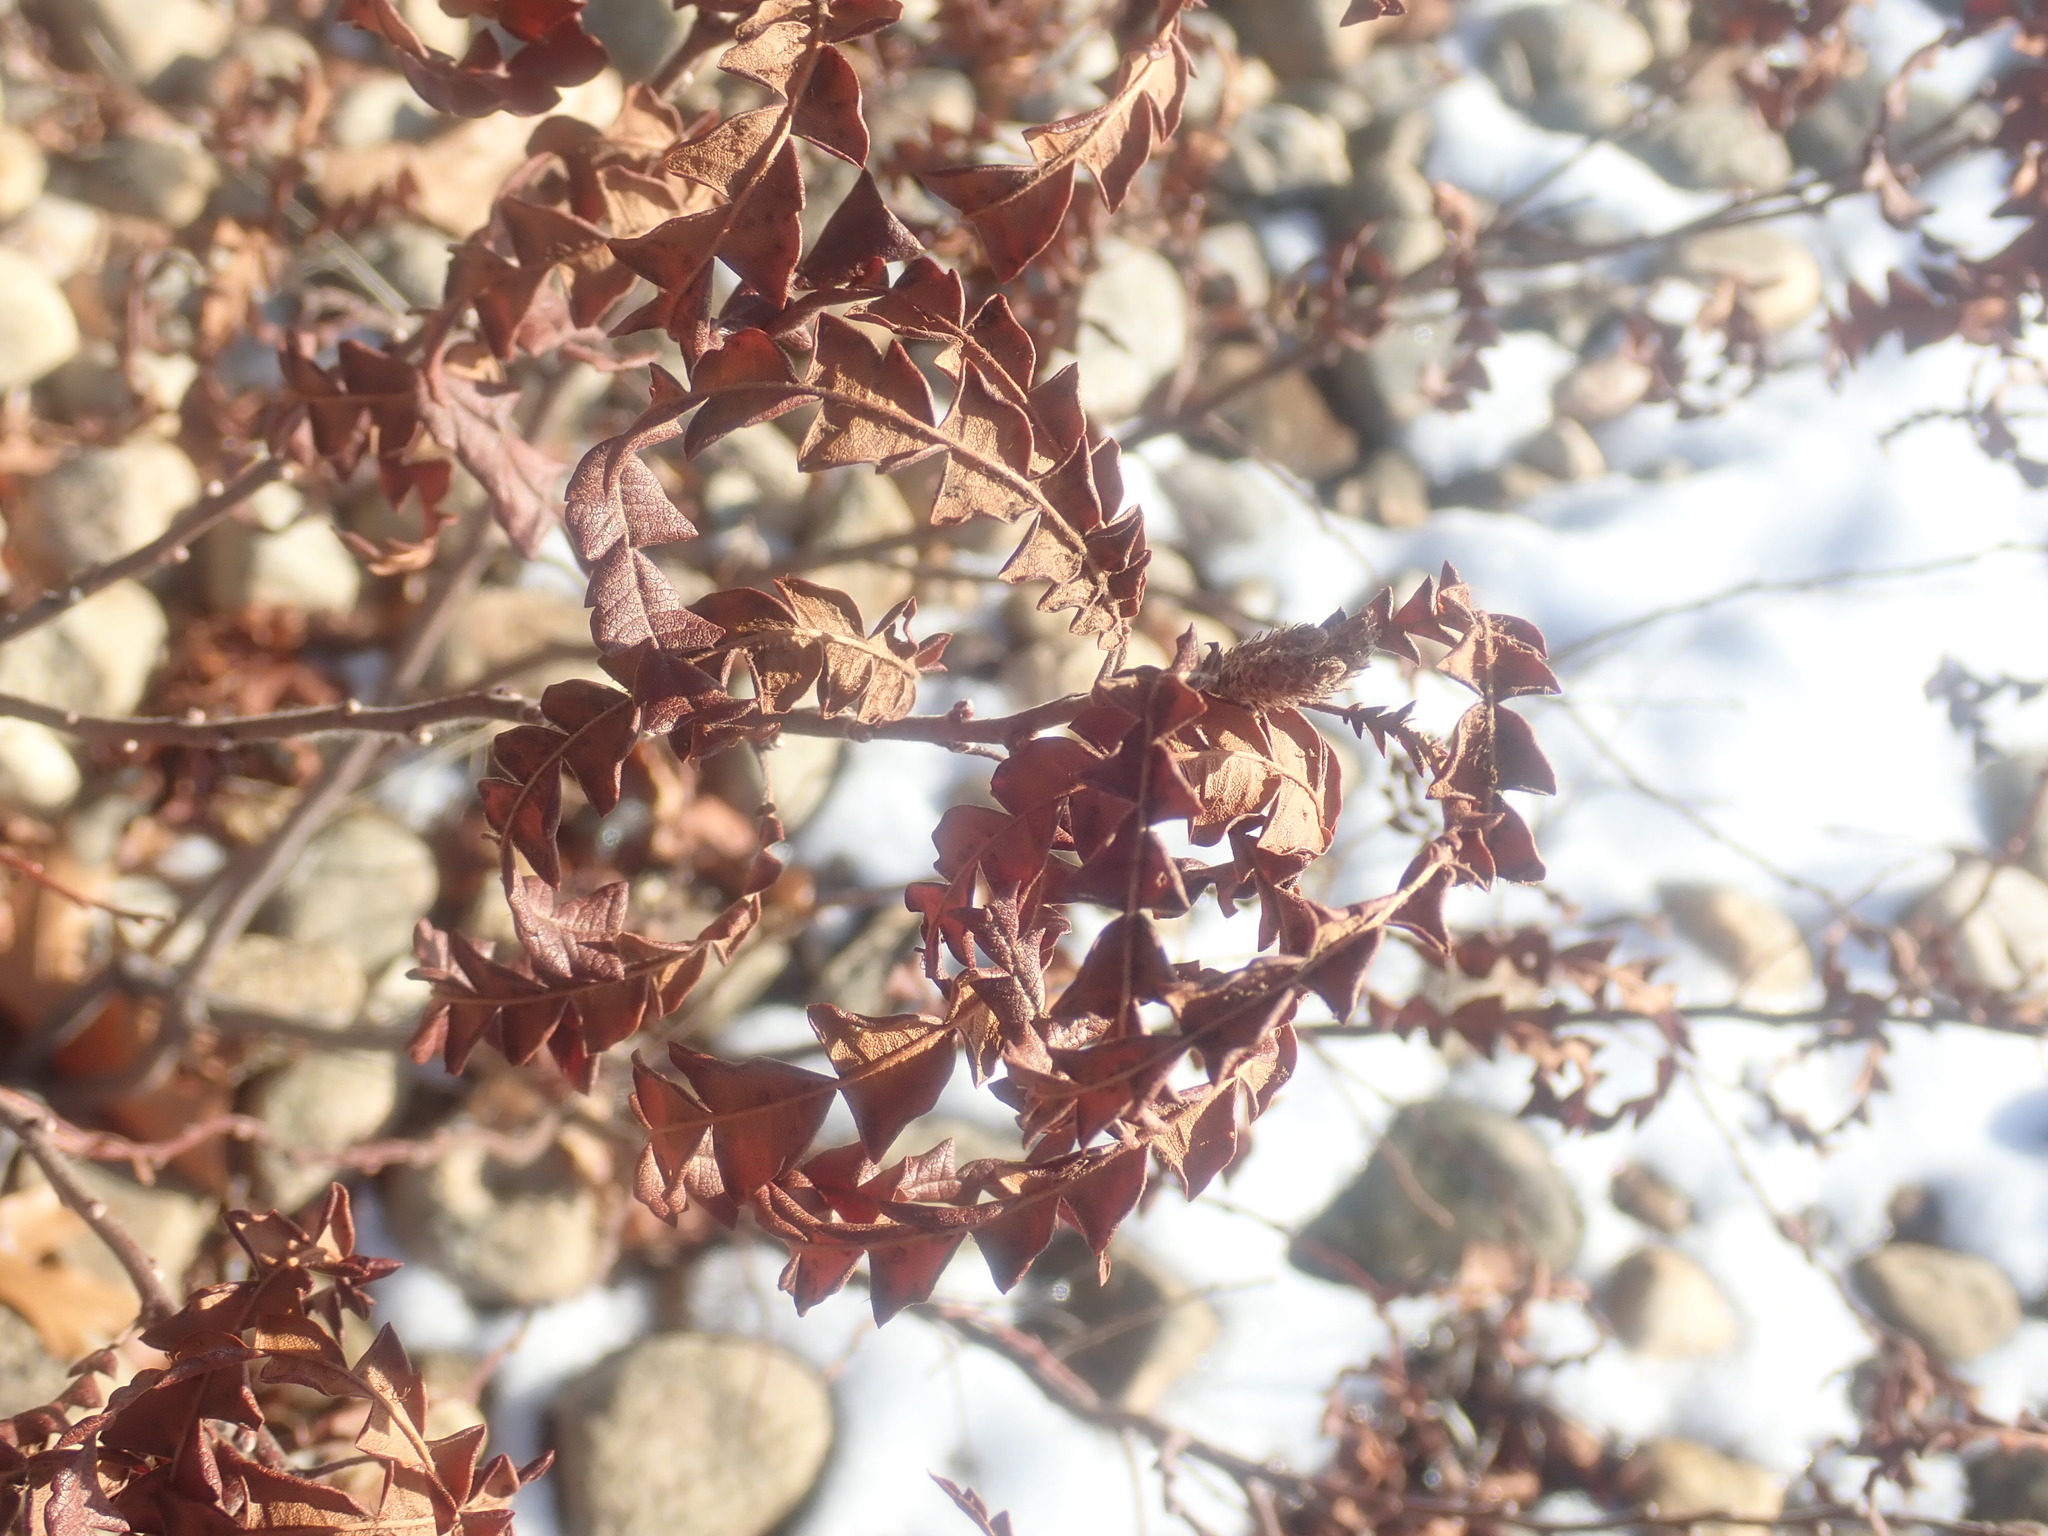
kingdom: Plantae
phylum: Tracheophyta
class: Magnoliopsida
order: Fagales
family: Myricaceae
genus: Comptonia
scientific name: Comptonia peregrina
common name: Sweet-fern
